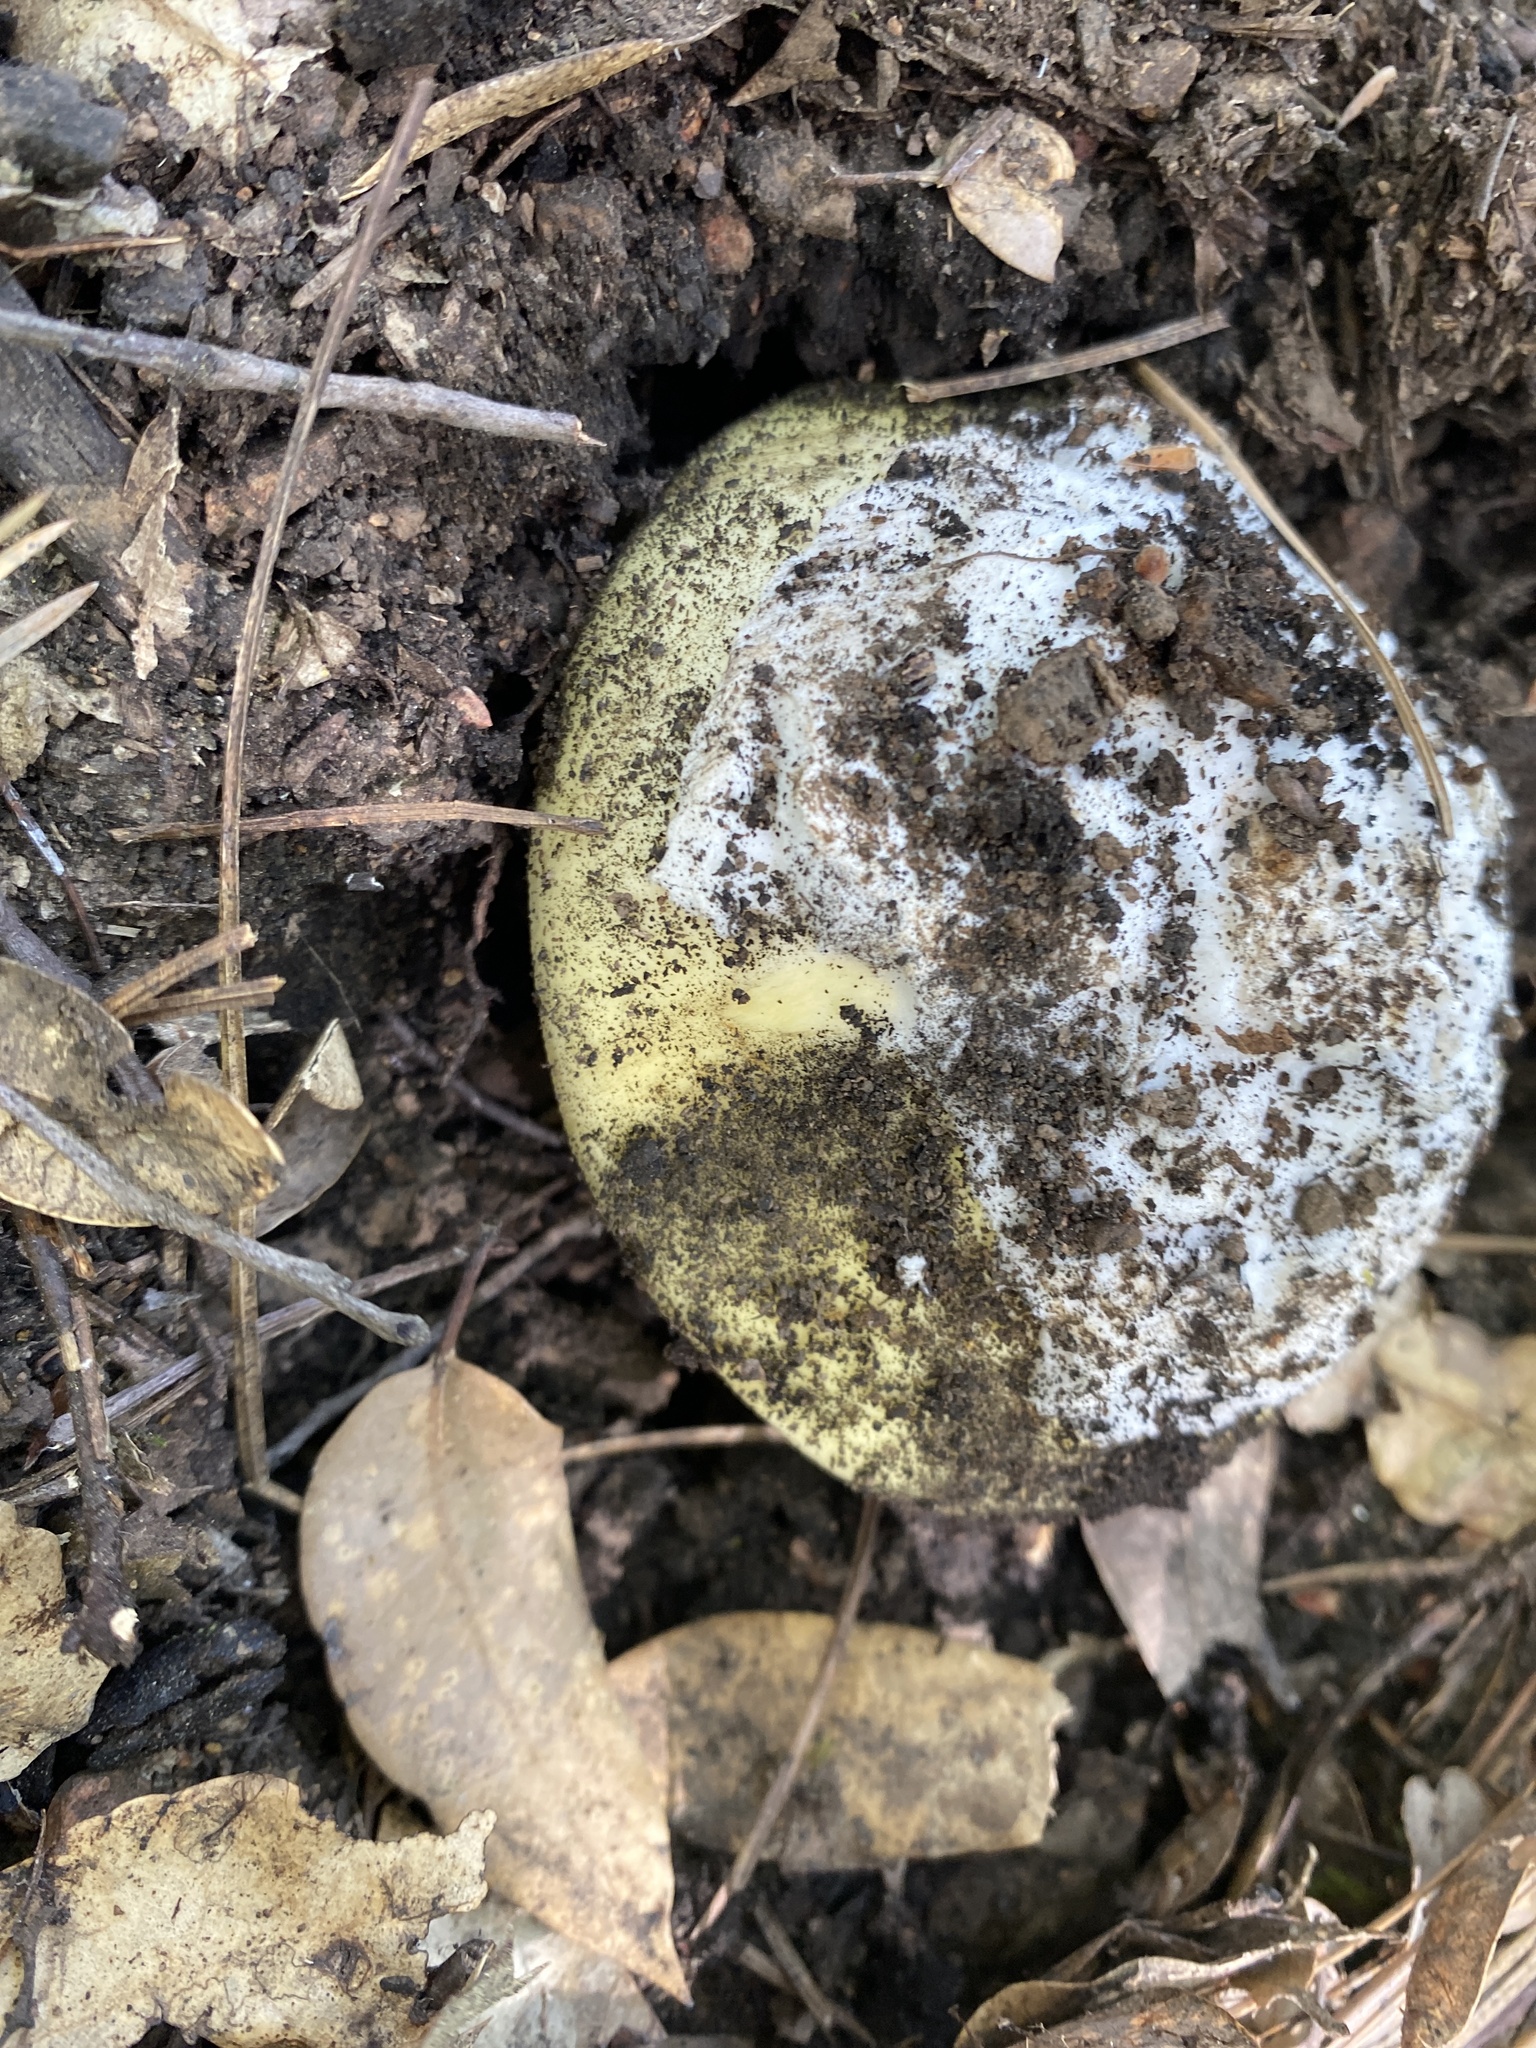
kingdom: Fungi
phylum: Basidiomycota
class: Agaricomycetes
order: Agaricales
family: Amanitaceae
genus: Amanita
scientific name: Amanita vernicoccora
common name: Spring coccora
